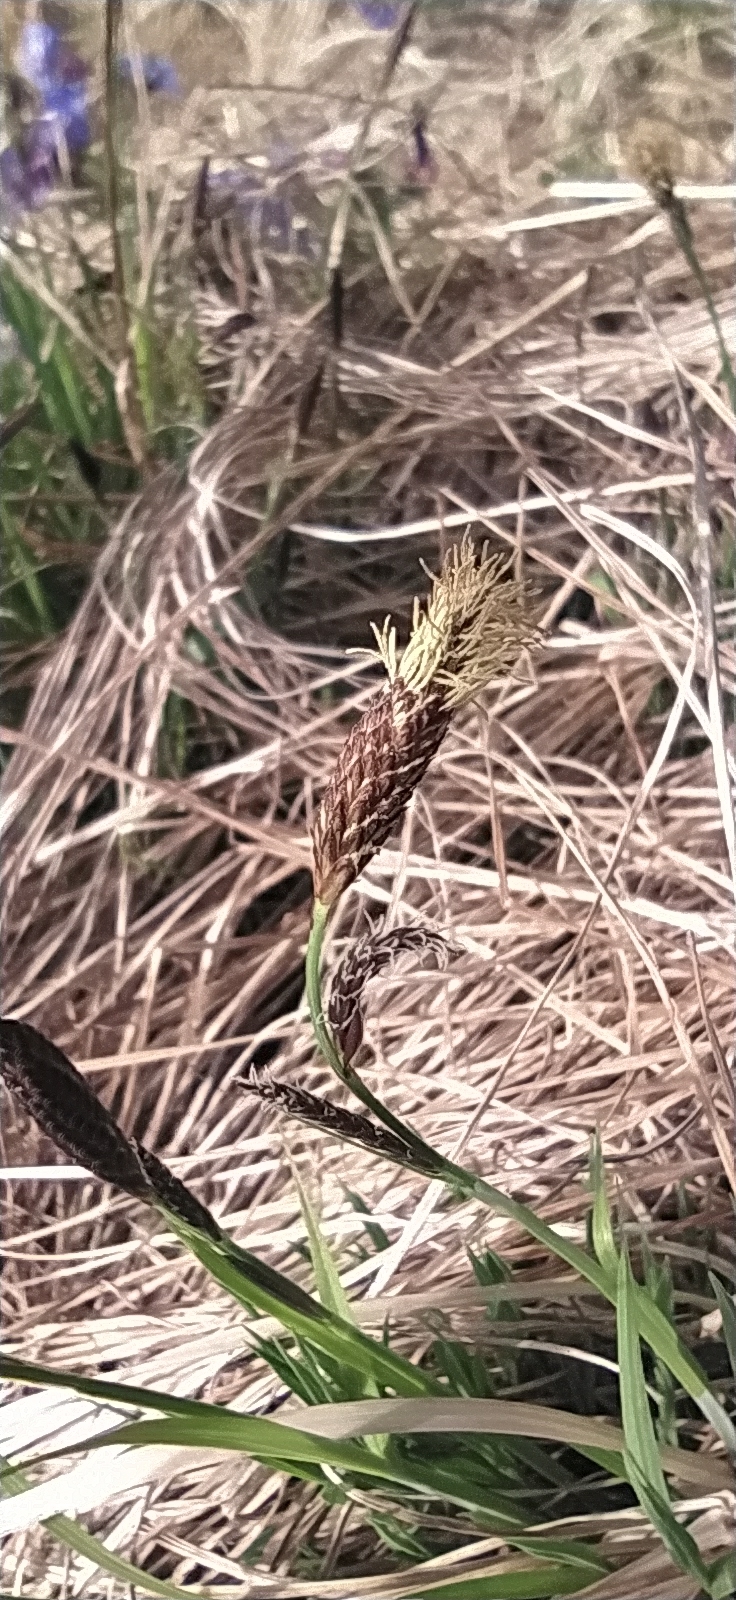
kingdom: Plantae
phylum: Tracheophyta
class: Liliopsida
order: Poales
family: Cyperaceae
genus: Carex
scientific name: Carex nigra
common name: Common sedge
